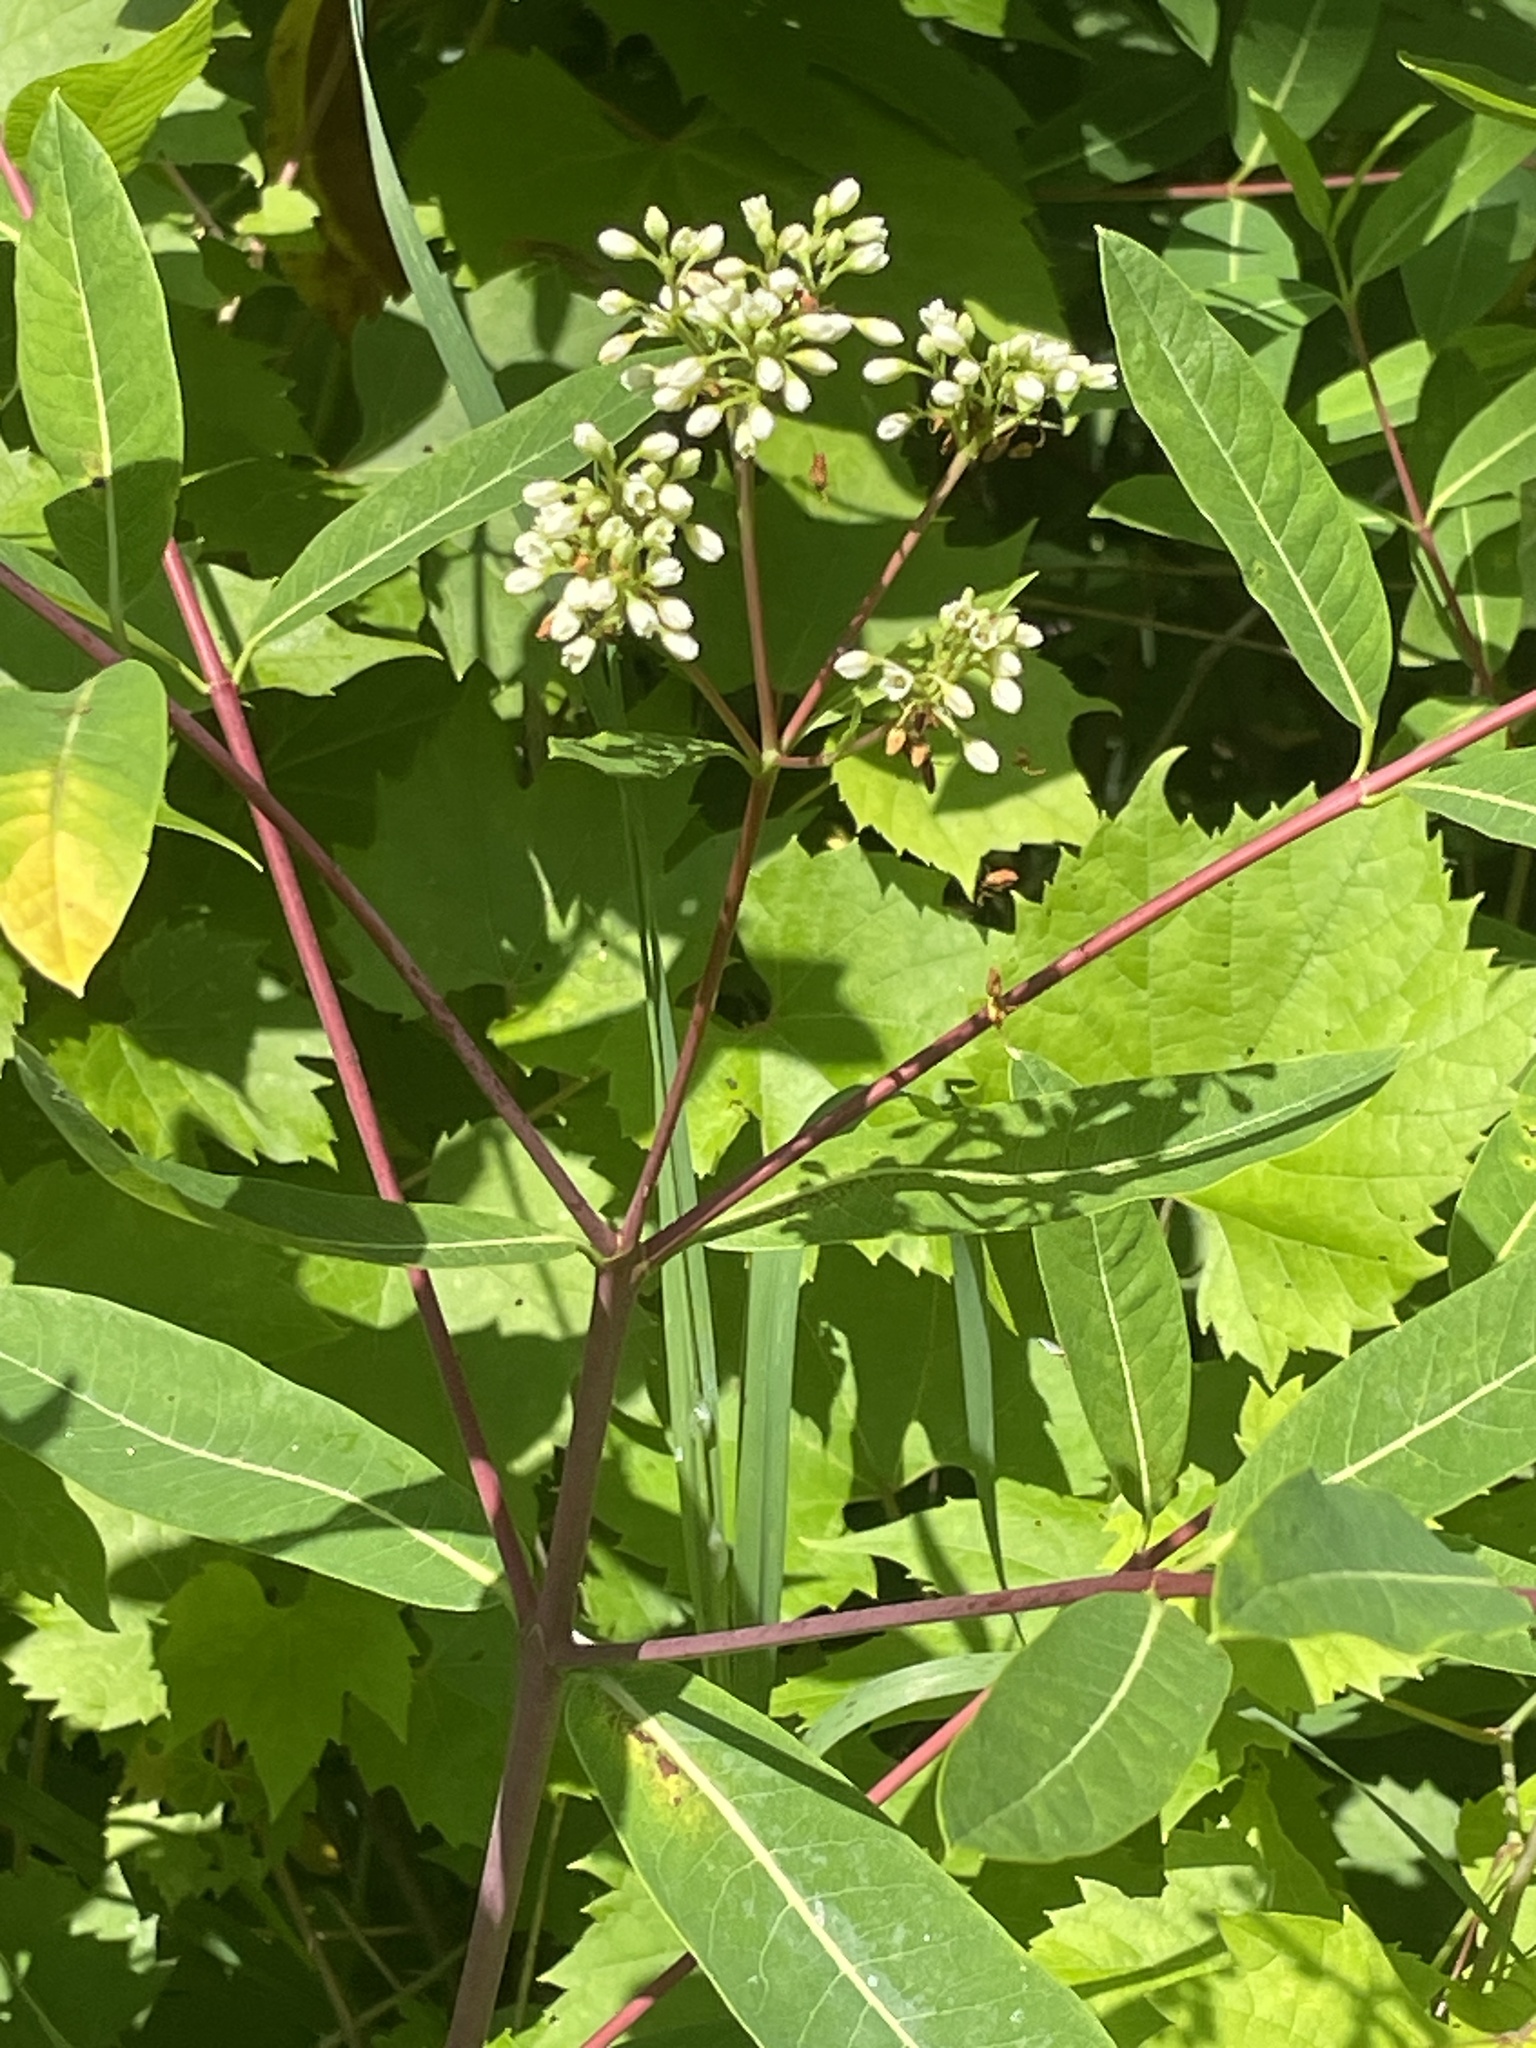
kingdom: Plantae
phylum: Tracheophyta
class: Magnoliopsida
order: Gentianales
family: Apocynaceae
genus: Apocynum
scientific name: Apocynum cannabinum
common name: Hemp dogbane
